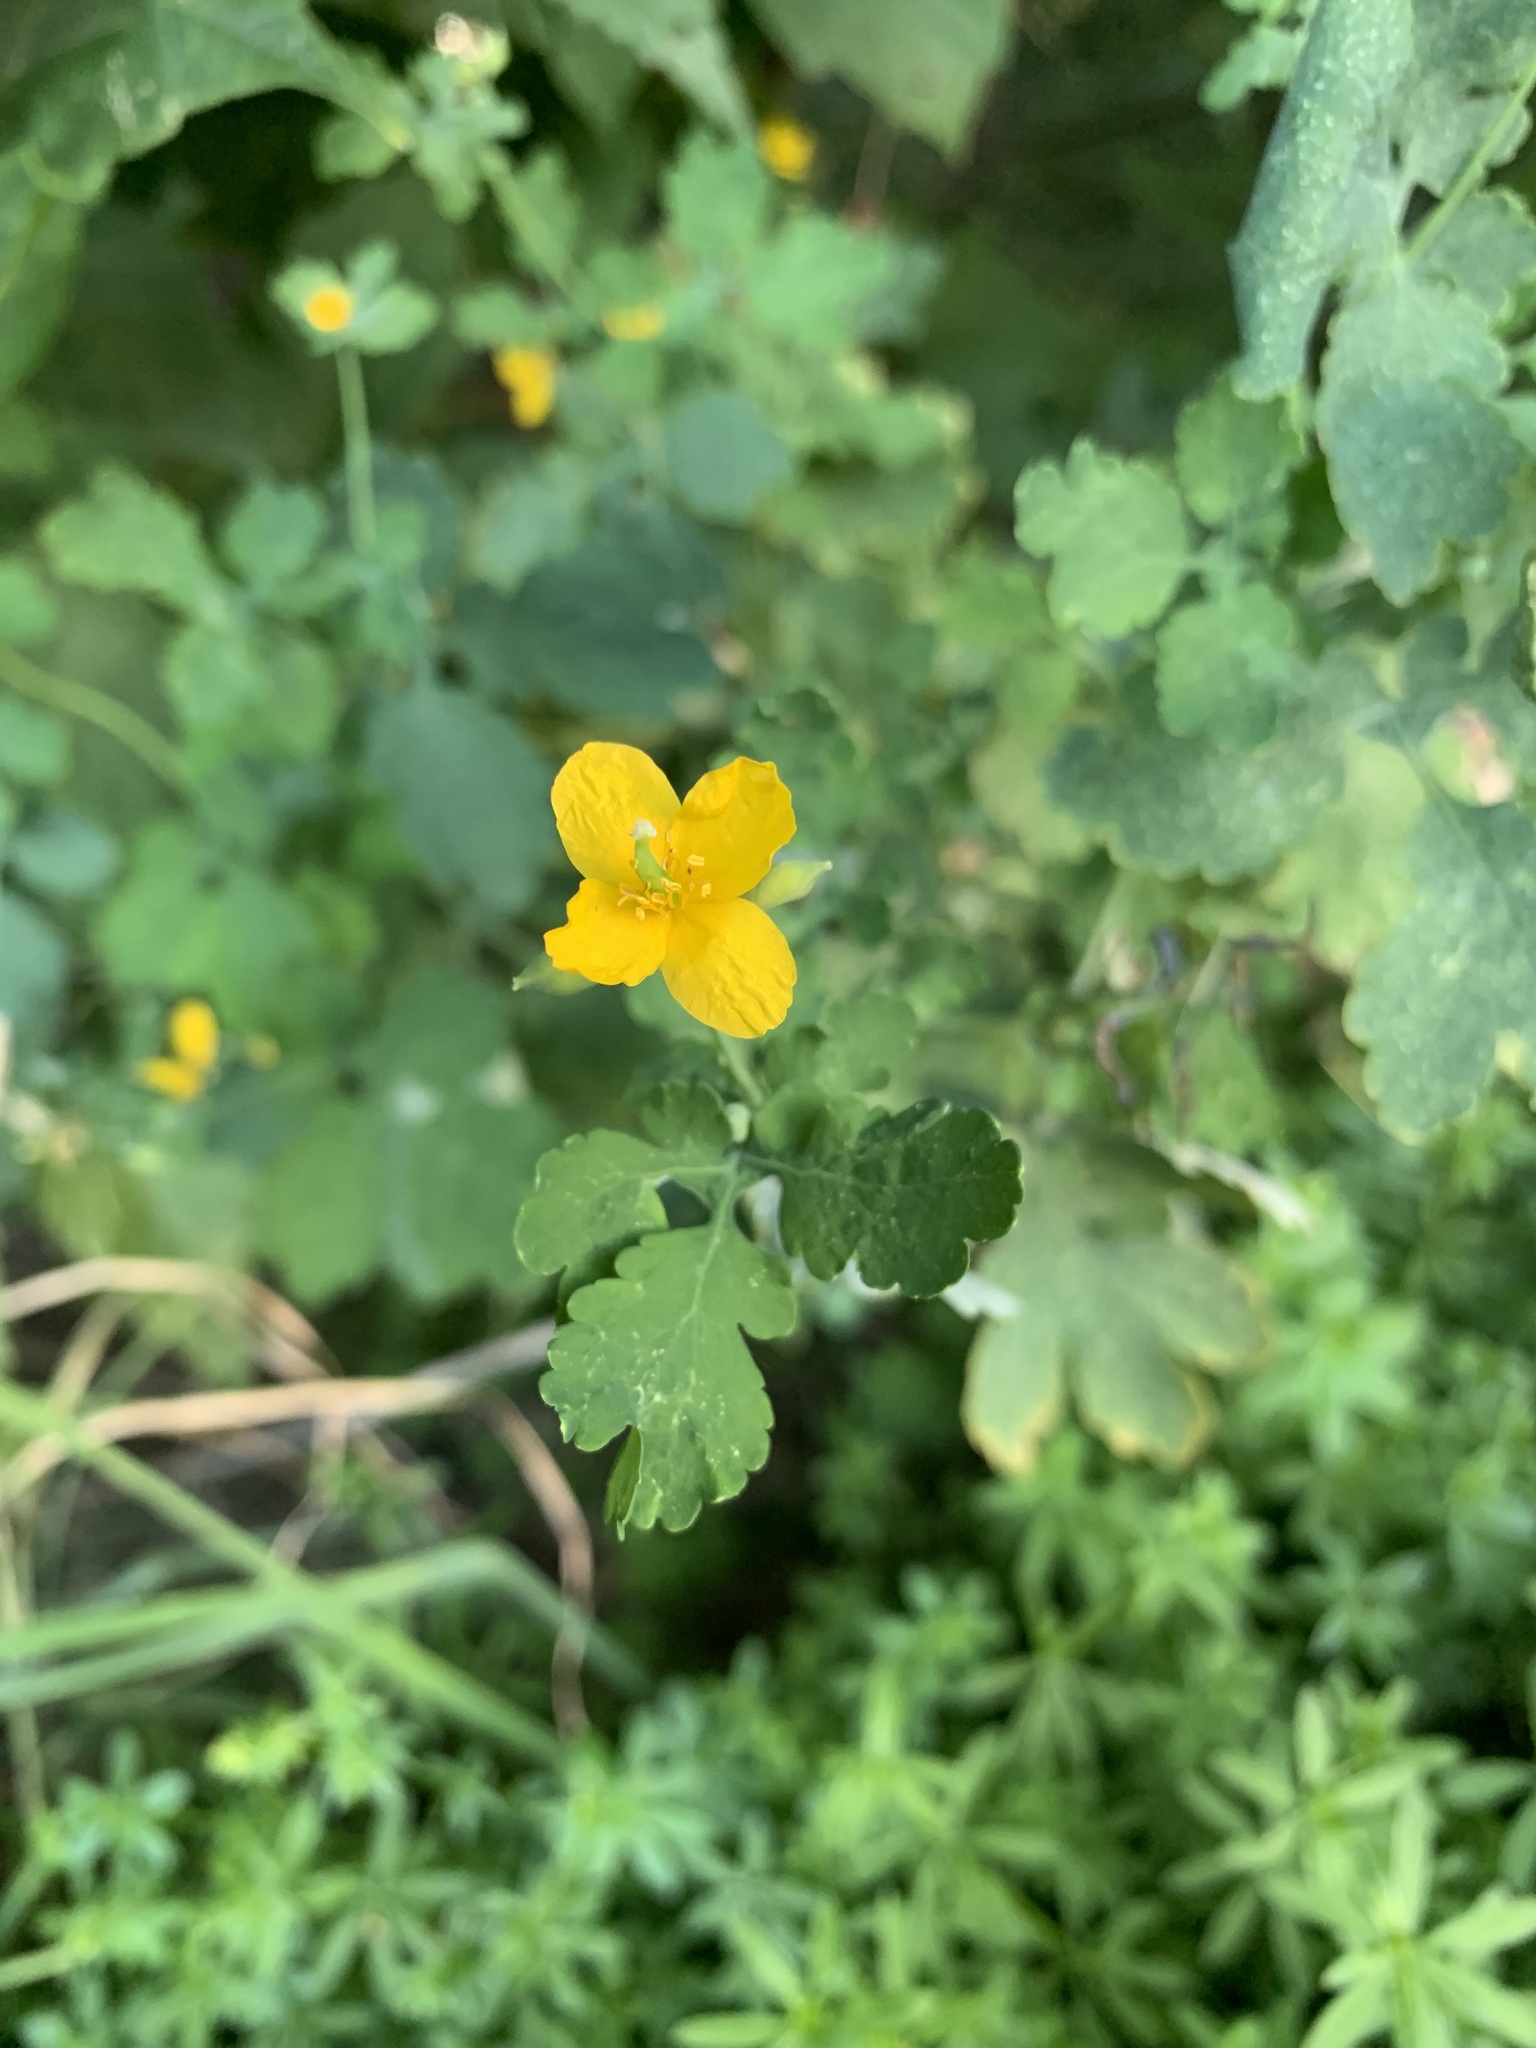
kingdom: Plantae
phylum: Tracheophyta
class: Magnoliopsida
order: Ranunculales
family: Papaveraceae
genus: Chelidonium
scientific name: Chelidonium majus
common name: Greater celandine
